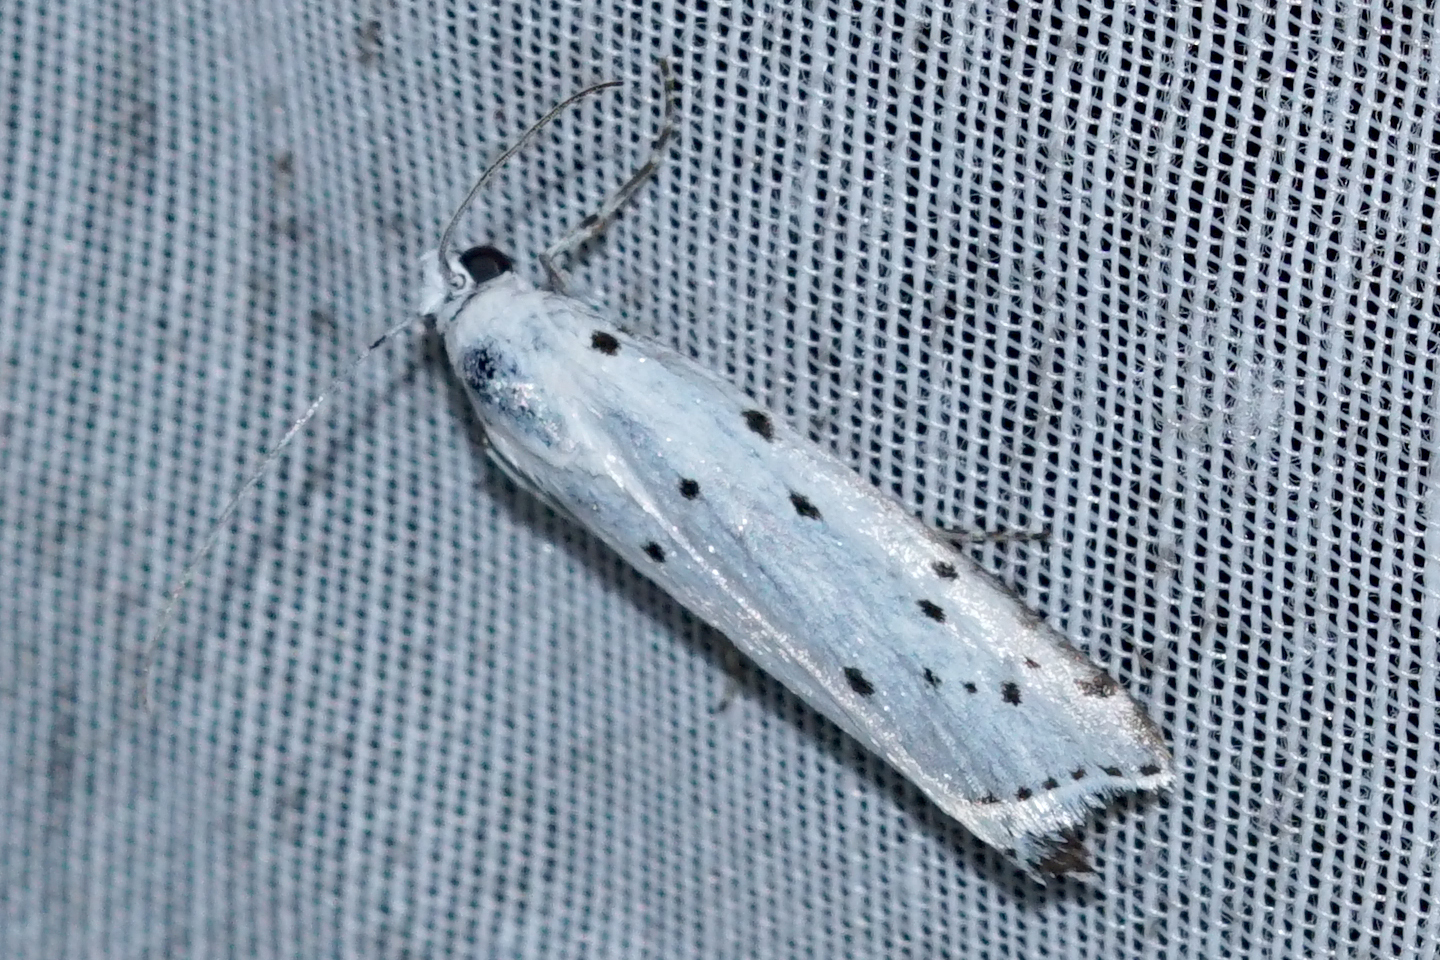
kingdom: Animalia
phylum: Arthropoda
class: Insecta
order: Lepidoptera
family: Pyralidae
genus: Myelois
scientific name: Myelois circumvoluta
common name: Thistle ermine
